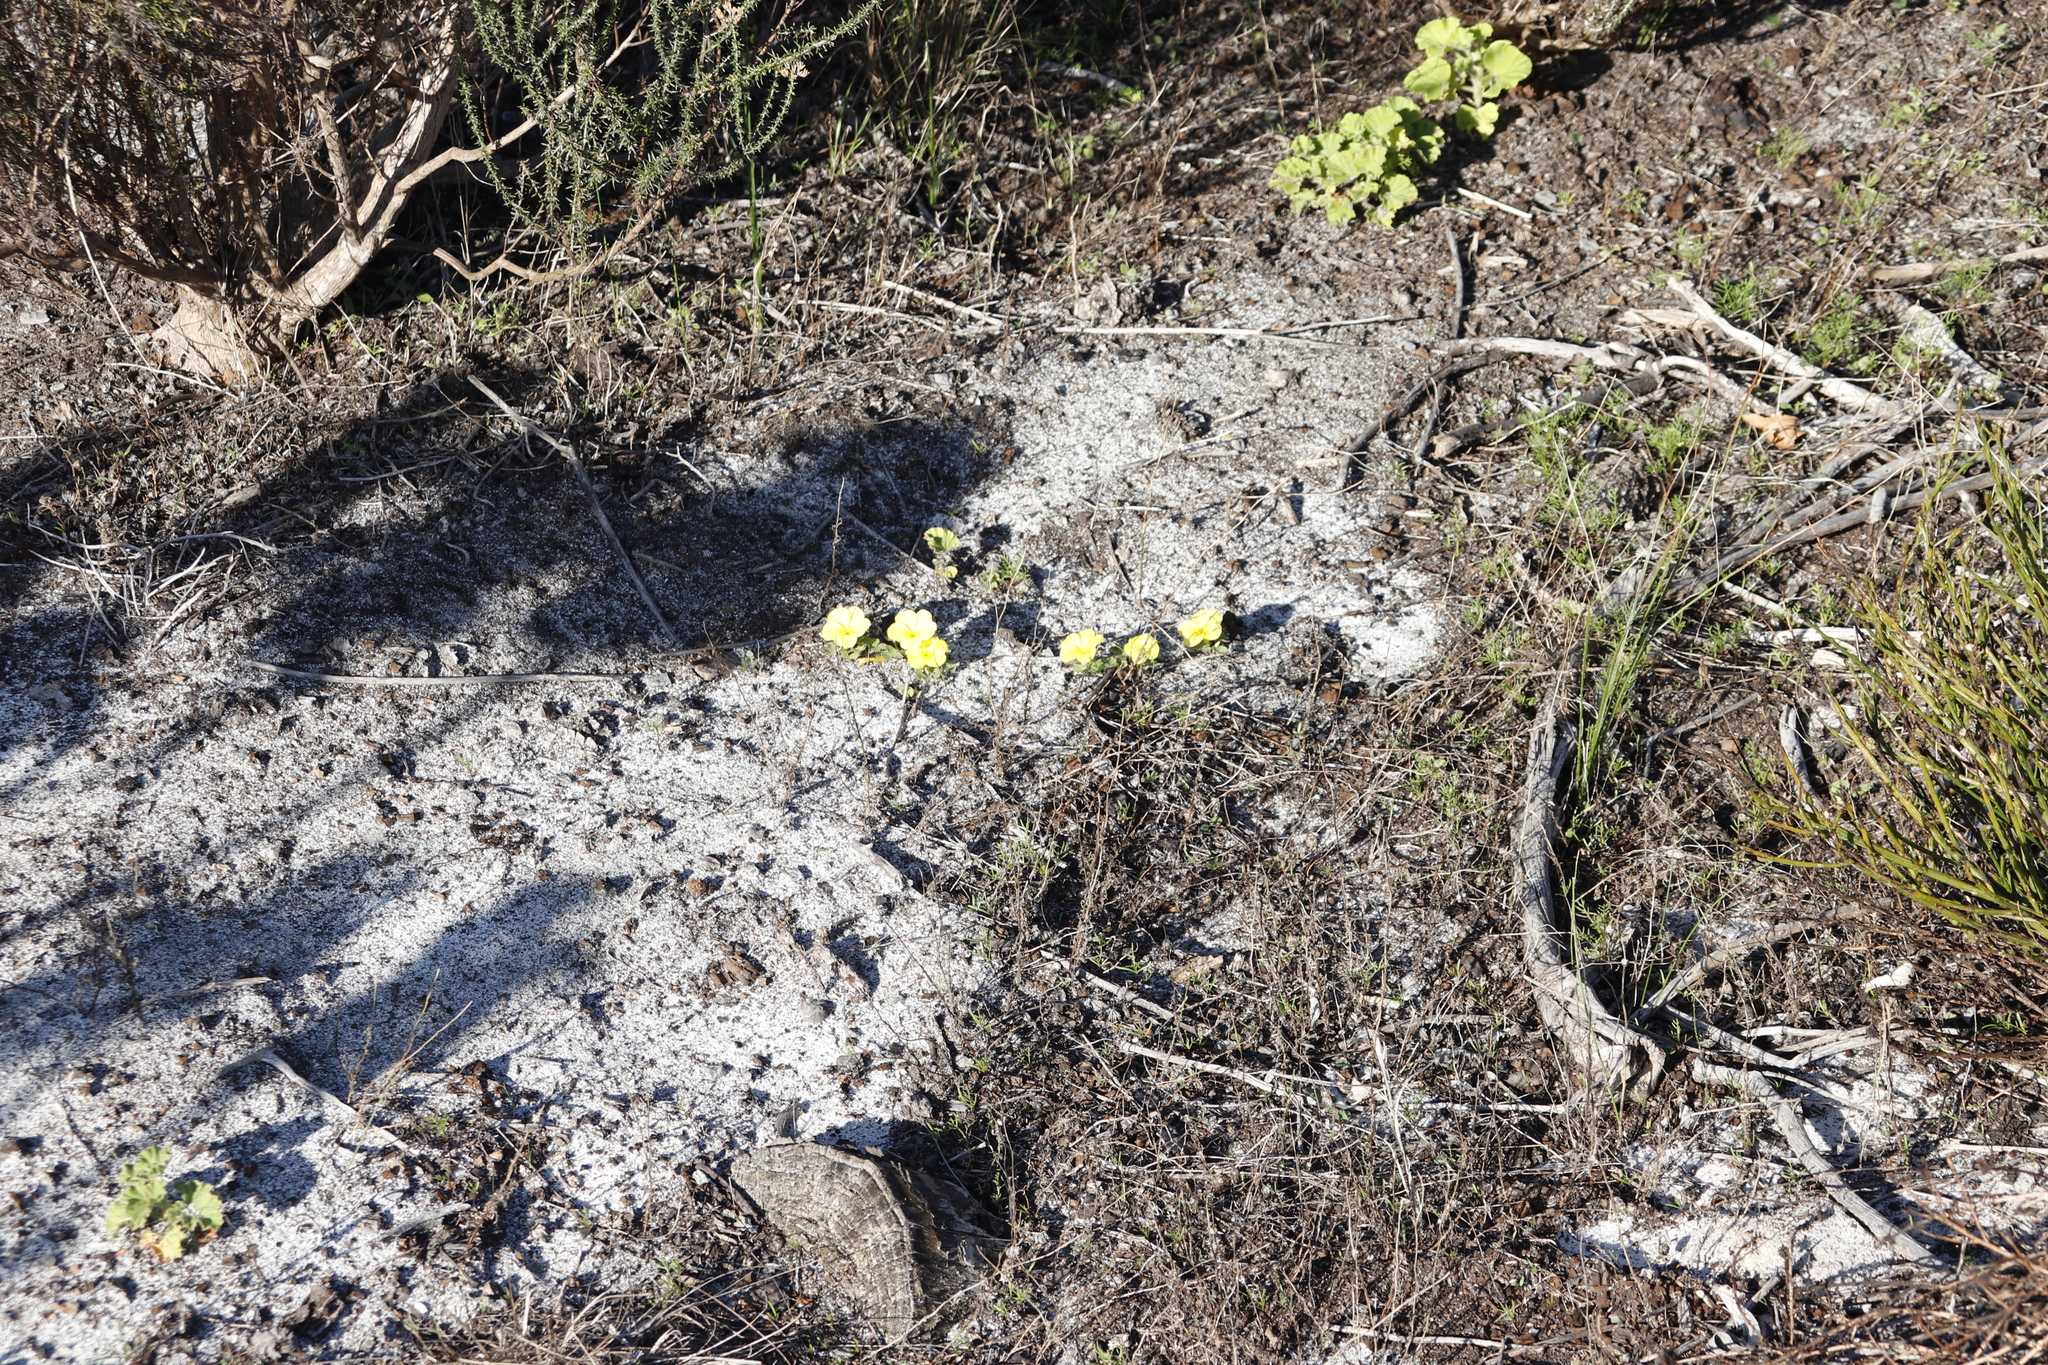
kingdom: Plantae
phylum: Tracheophyta
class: Magnoliopsida
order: Oxalidales
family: Oxalidaceae
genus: Oxalis
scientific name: Oxalis luteola
